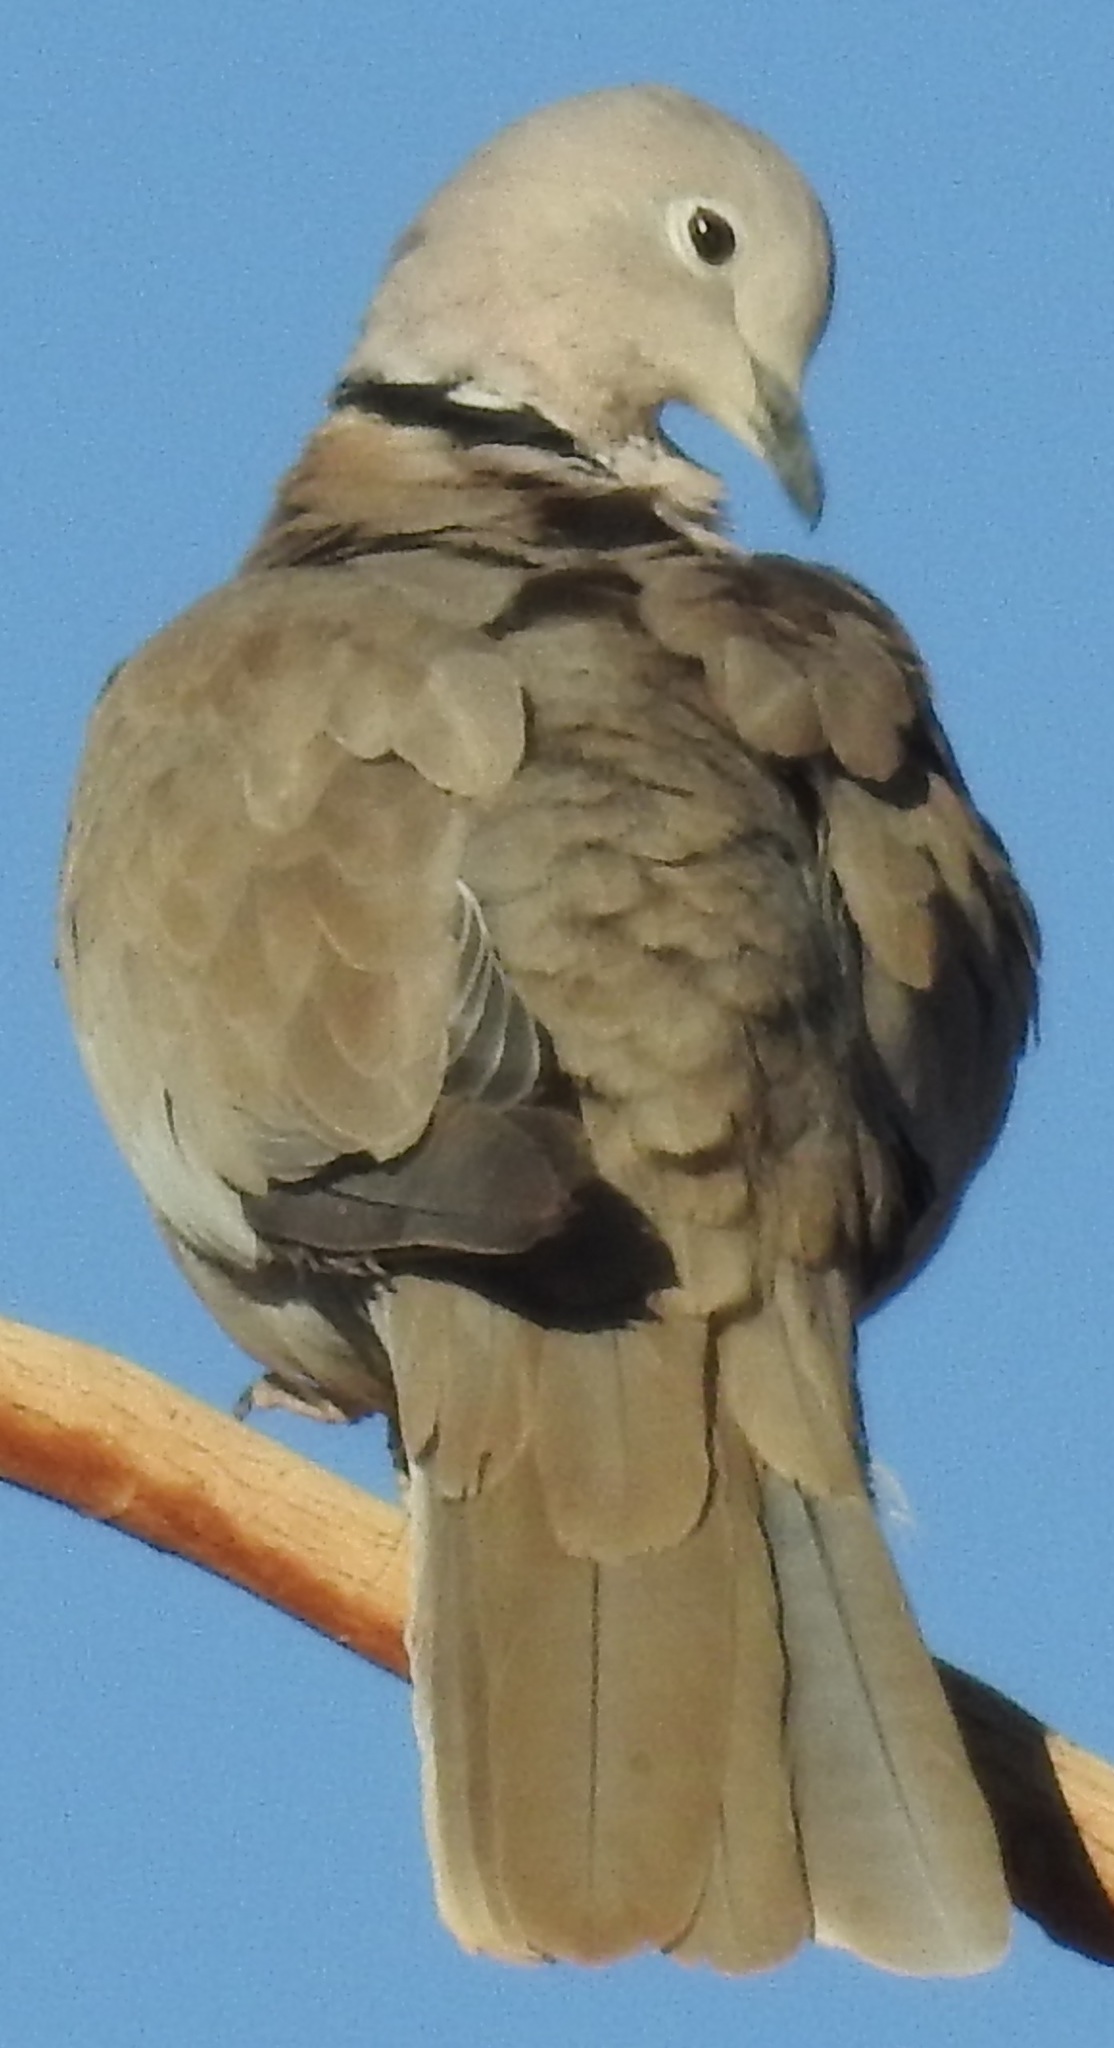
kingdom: Animalia
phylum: Chordata
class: Aves
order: Columbiformes
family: Columbidae
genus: Streptopelia
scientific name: Streptopelia decaocto
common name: Eurasian collared dove
